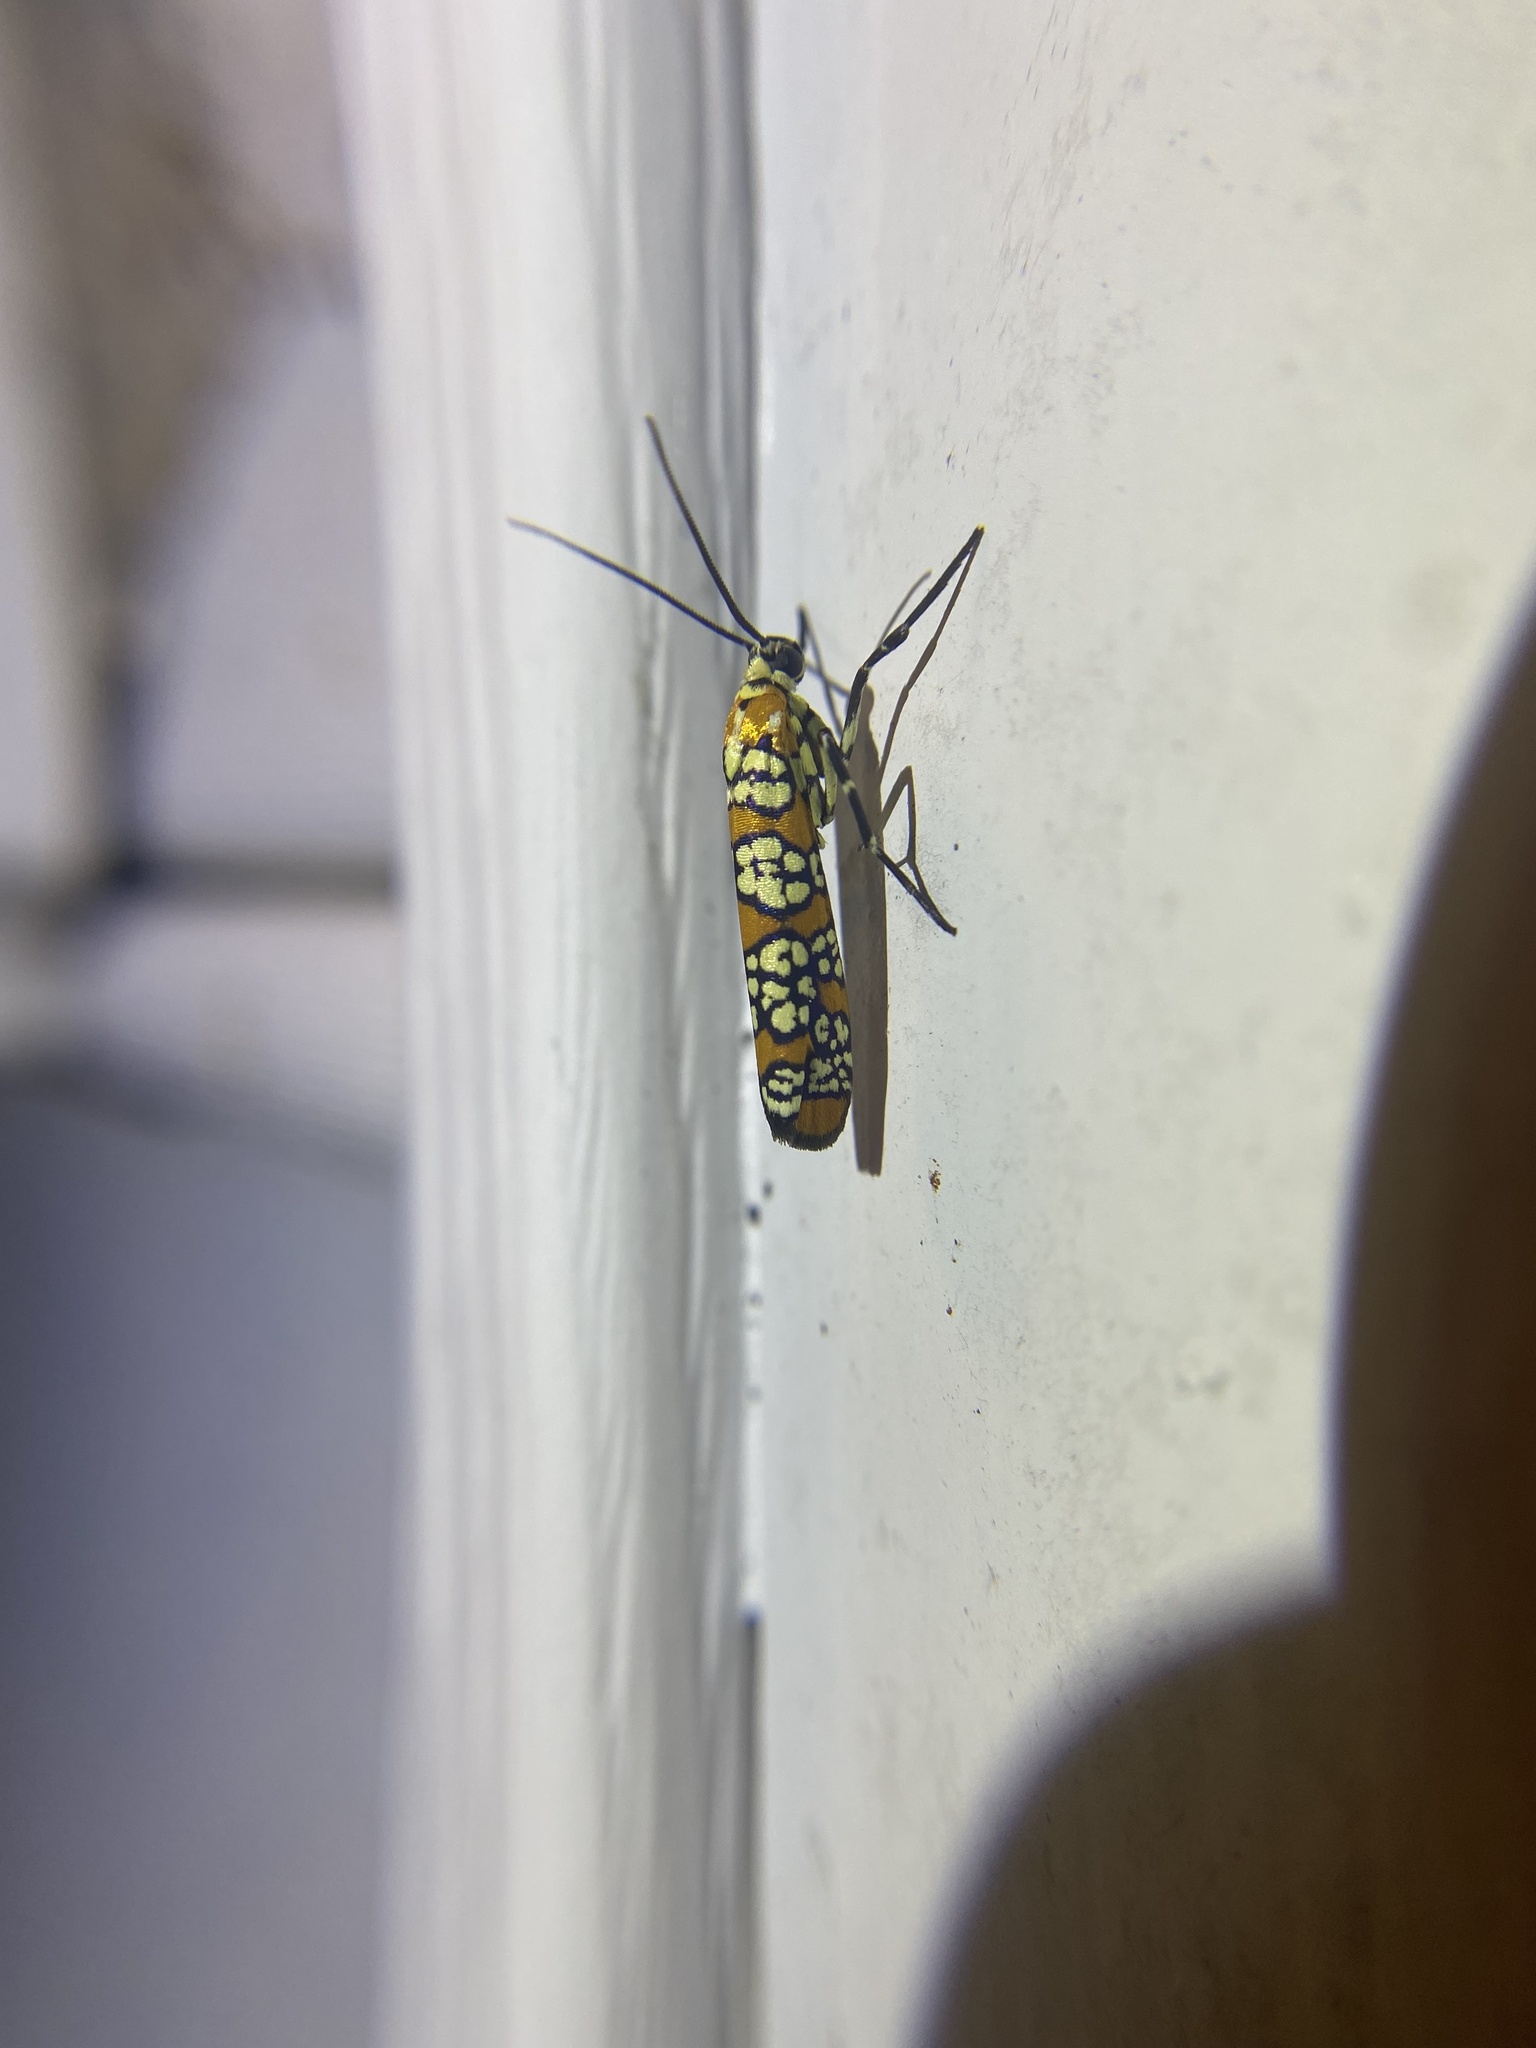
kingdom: Animalia
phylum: Arthropoda
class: Insecta
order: Lepidoptera
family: Attevidae
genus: Atteva
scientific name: Atteva punctella
